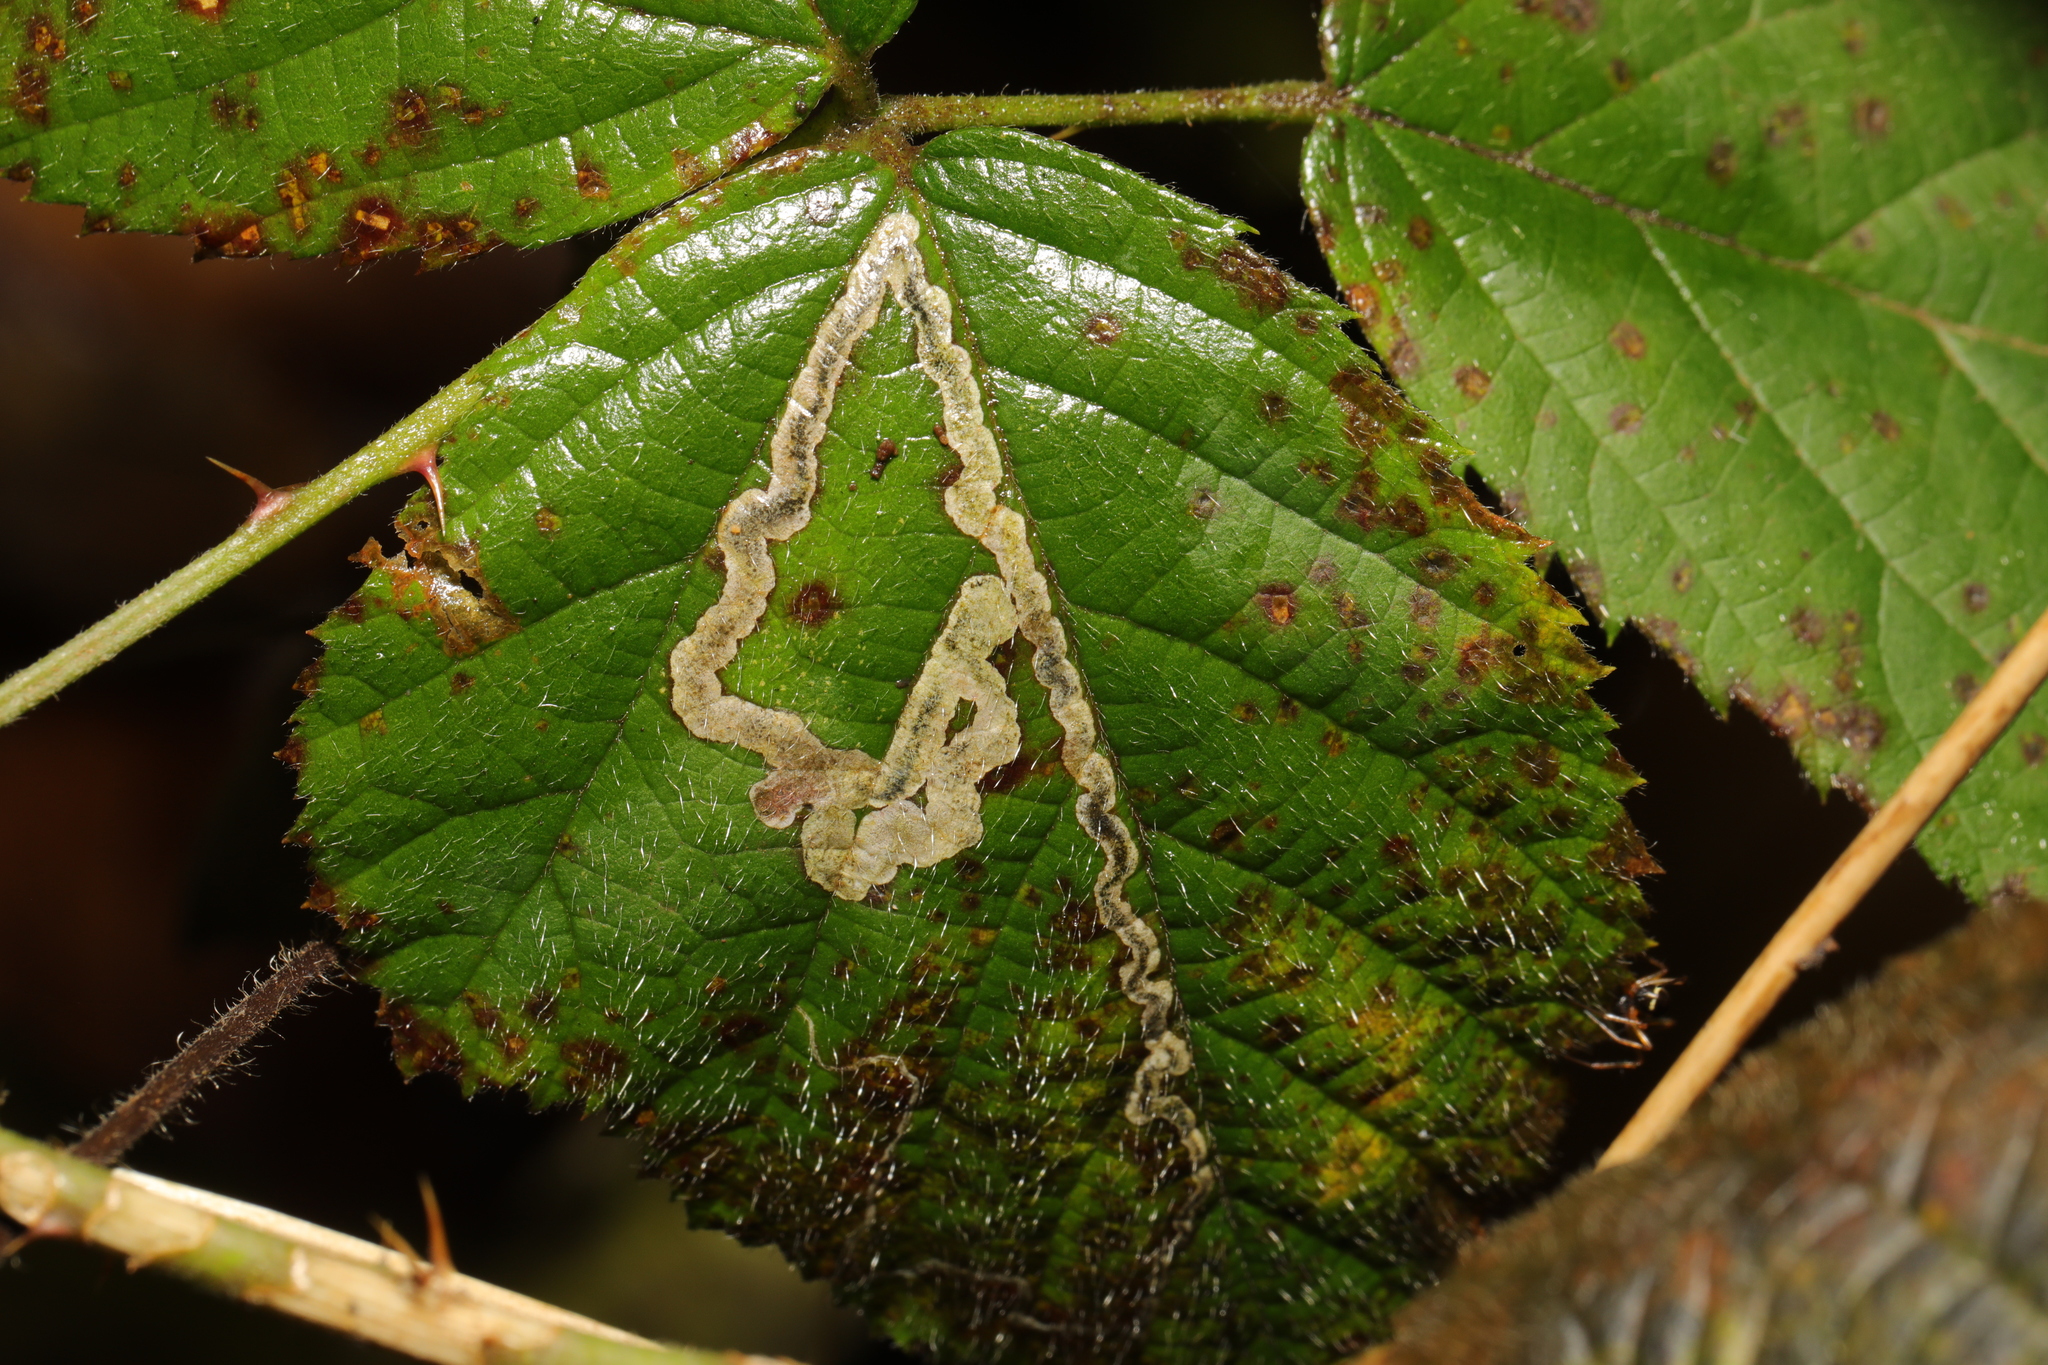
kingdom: Animalia
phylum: Arthropoda
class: Insecta
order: Lepidoptera
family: Nepticulidae
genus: Stigmella
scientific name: Stigmella aurella
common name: Golden pigmy
